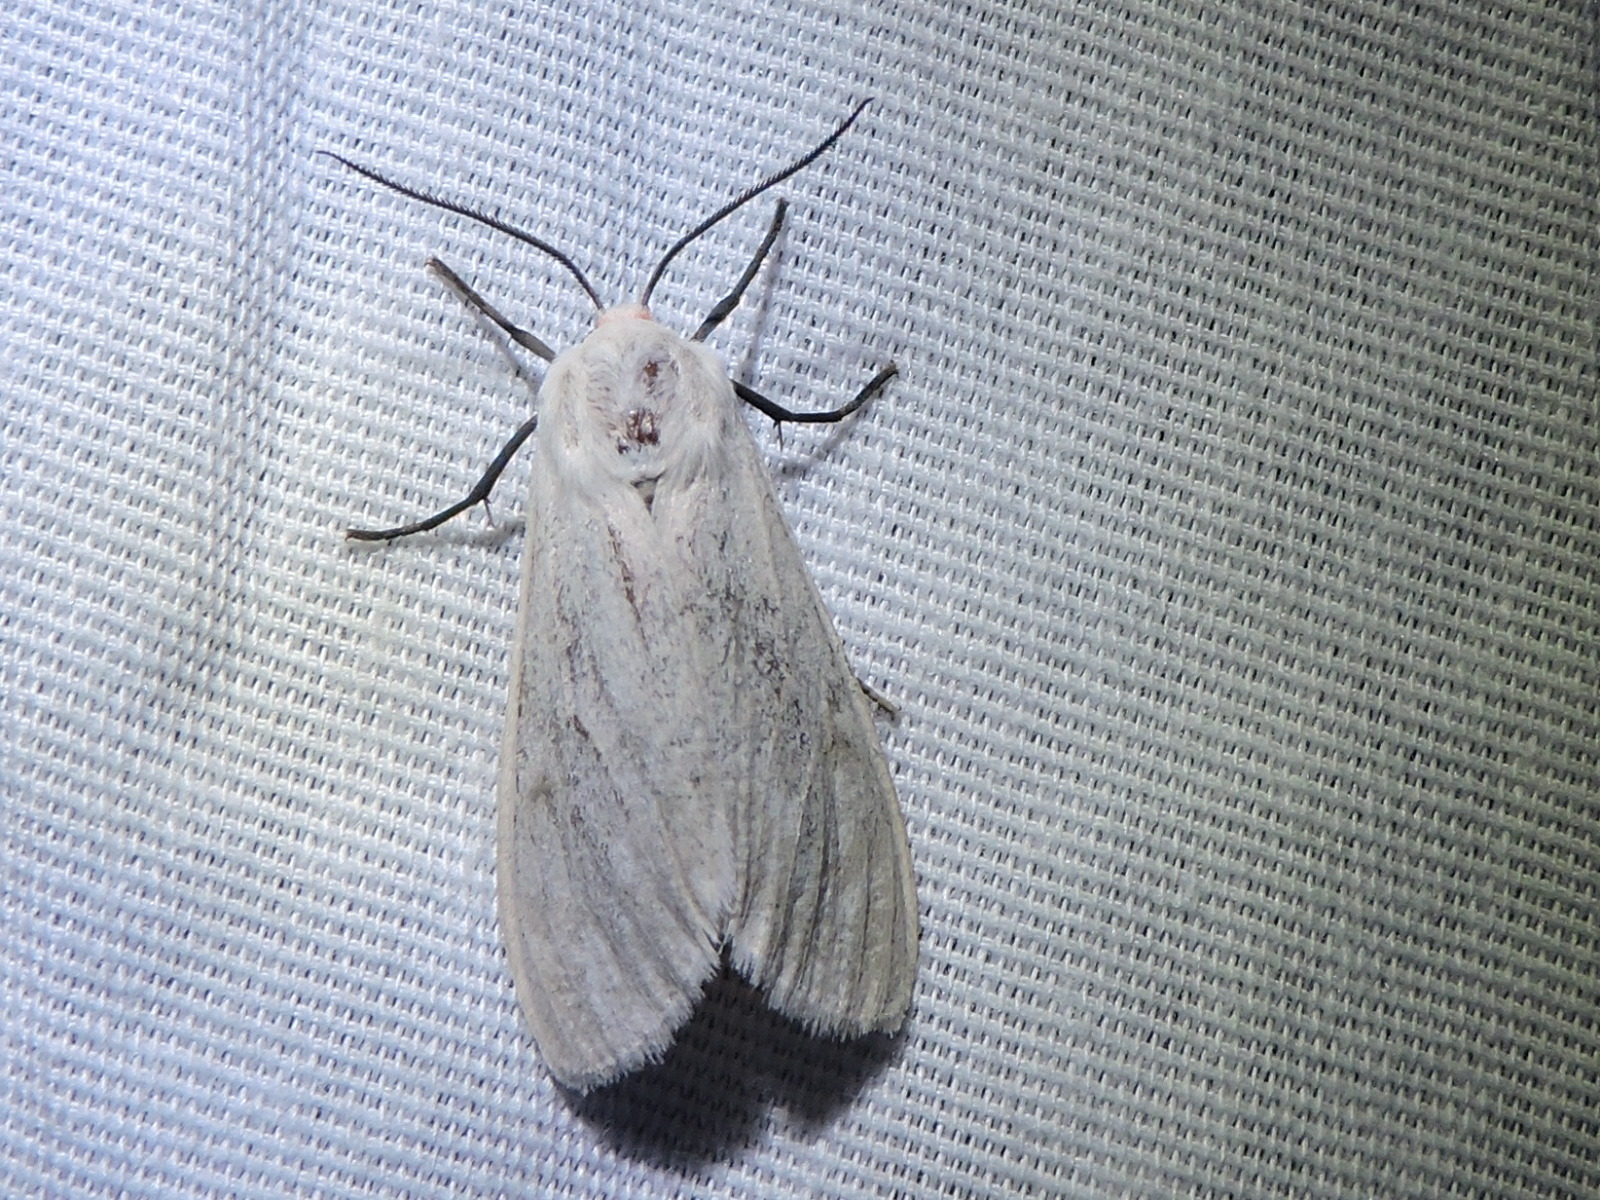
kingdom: Animalia
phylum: Arthropoda
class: Insecta
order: Lepidoptera
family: Erebidae
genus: Euchaetes
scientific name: Euchaetes bolteri
